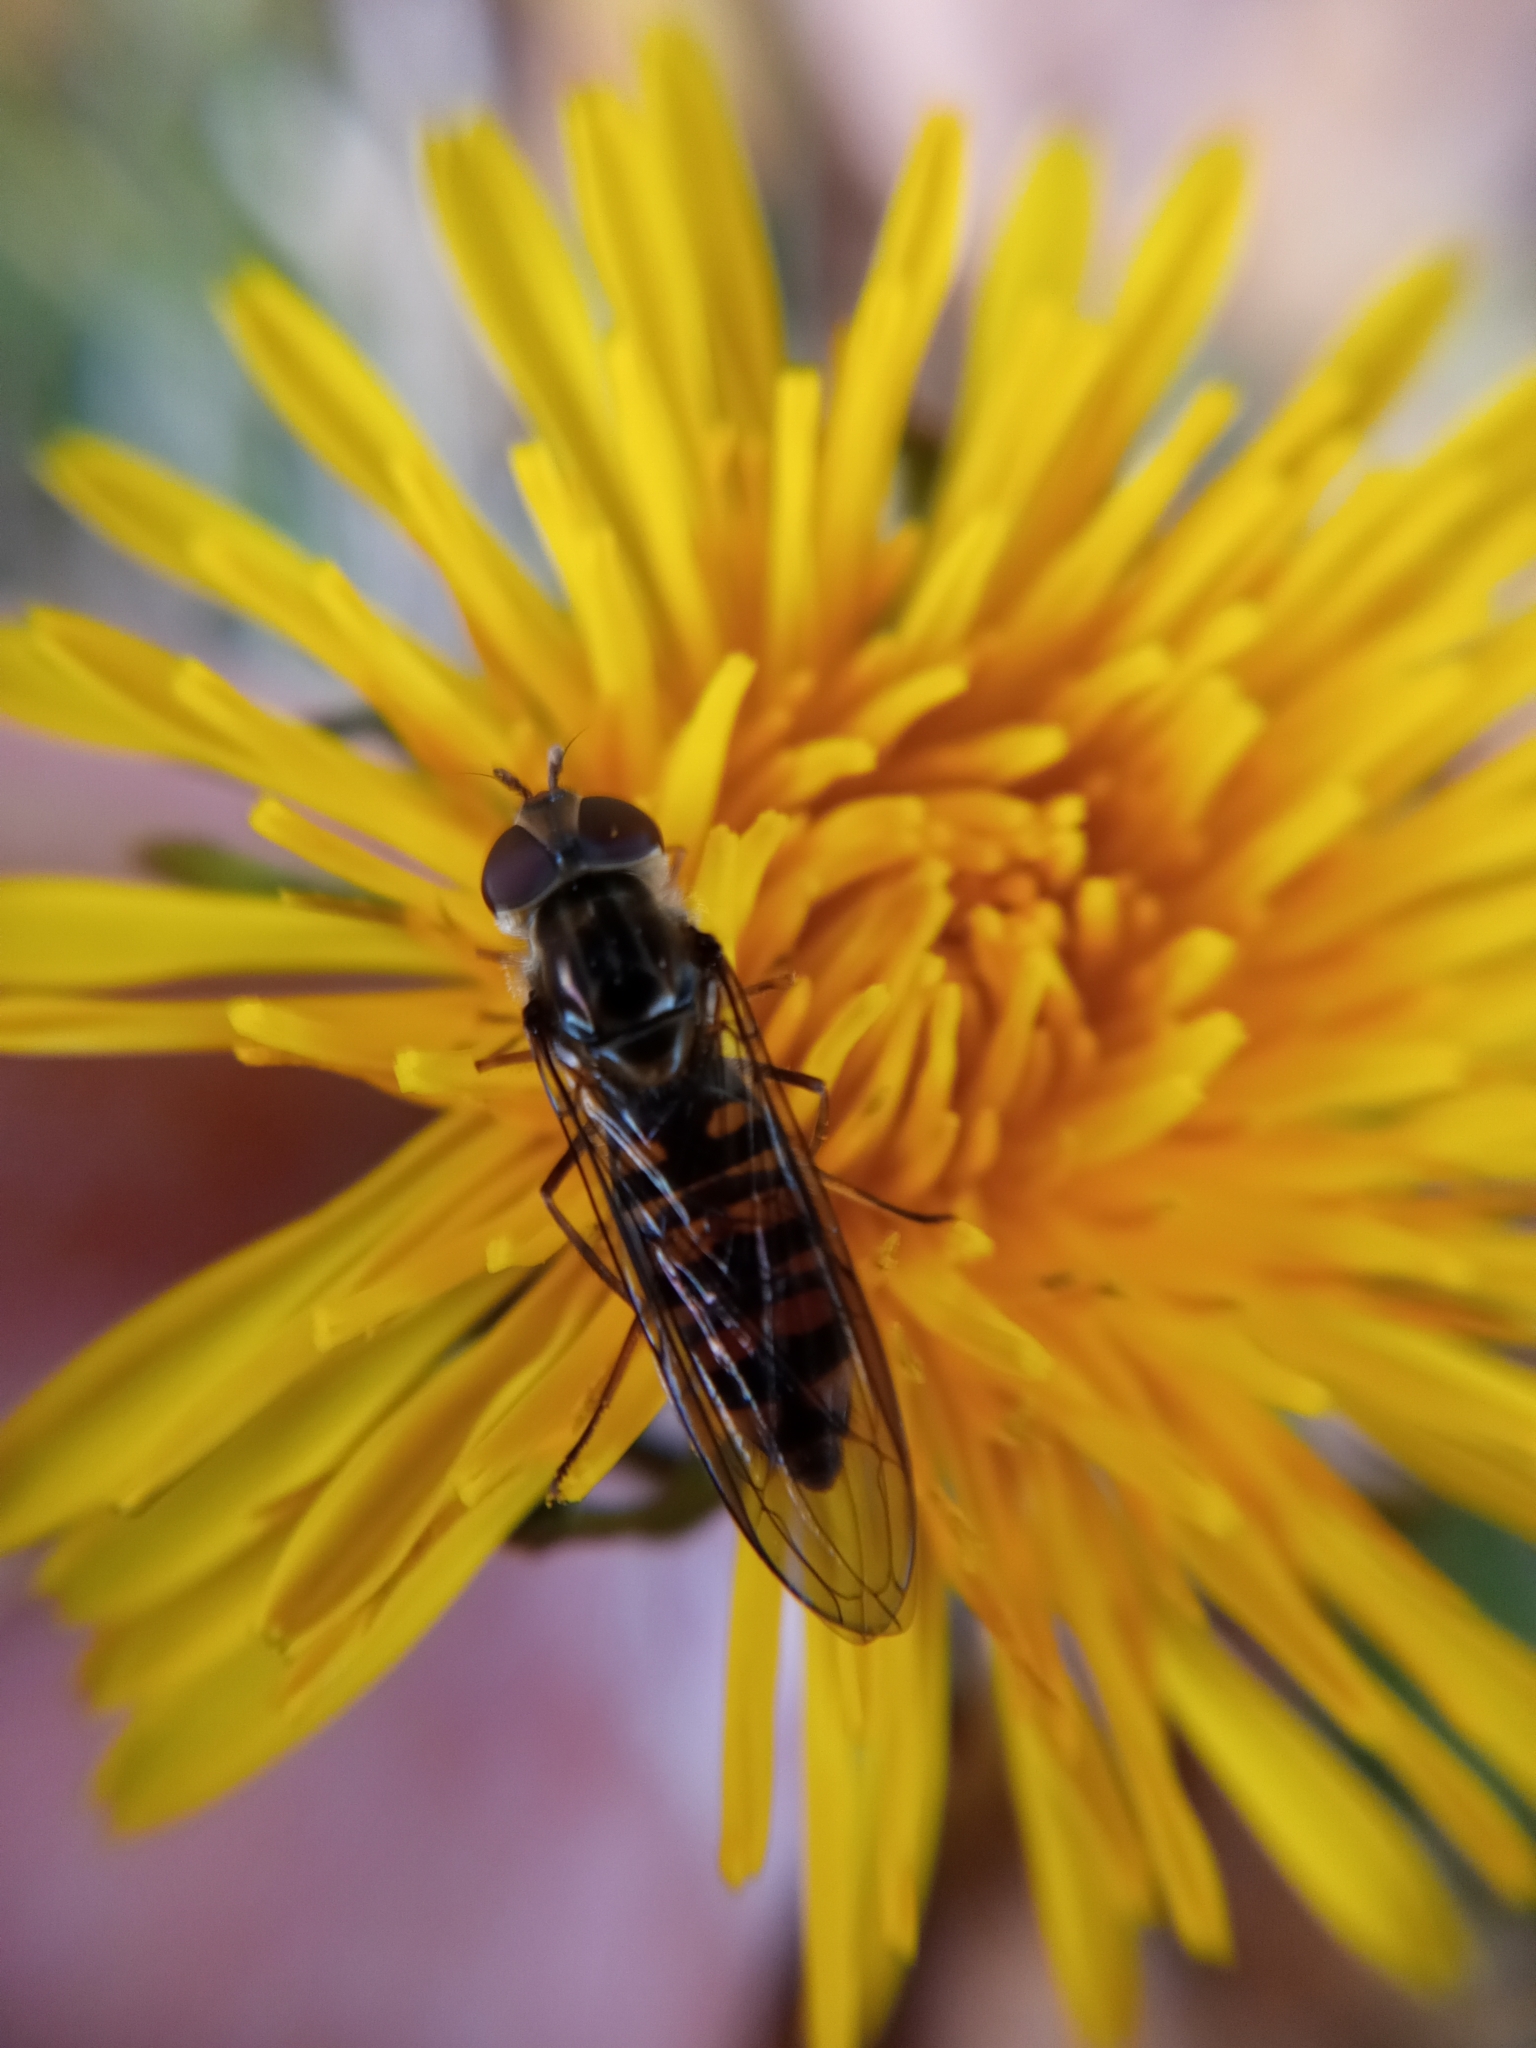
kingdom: Animalia
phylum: Arthropoda
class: Insecta
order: Diptera
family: Syrphidae
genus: Episyrphus
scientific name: Episyrphus balteatus
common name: Marmalade hoverfly
